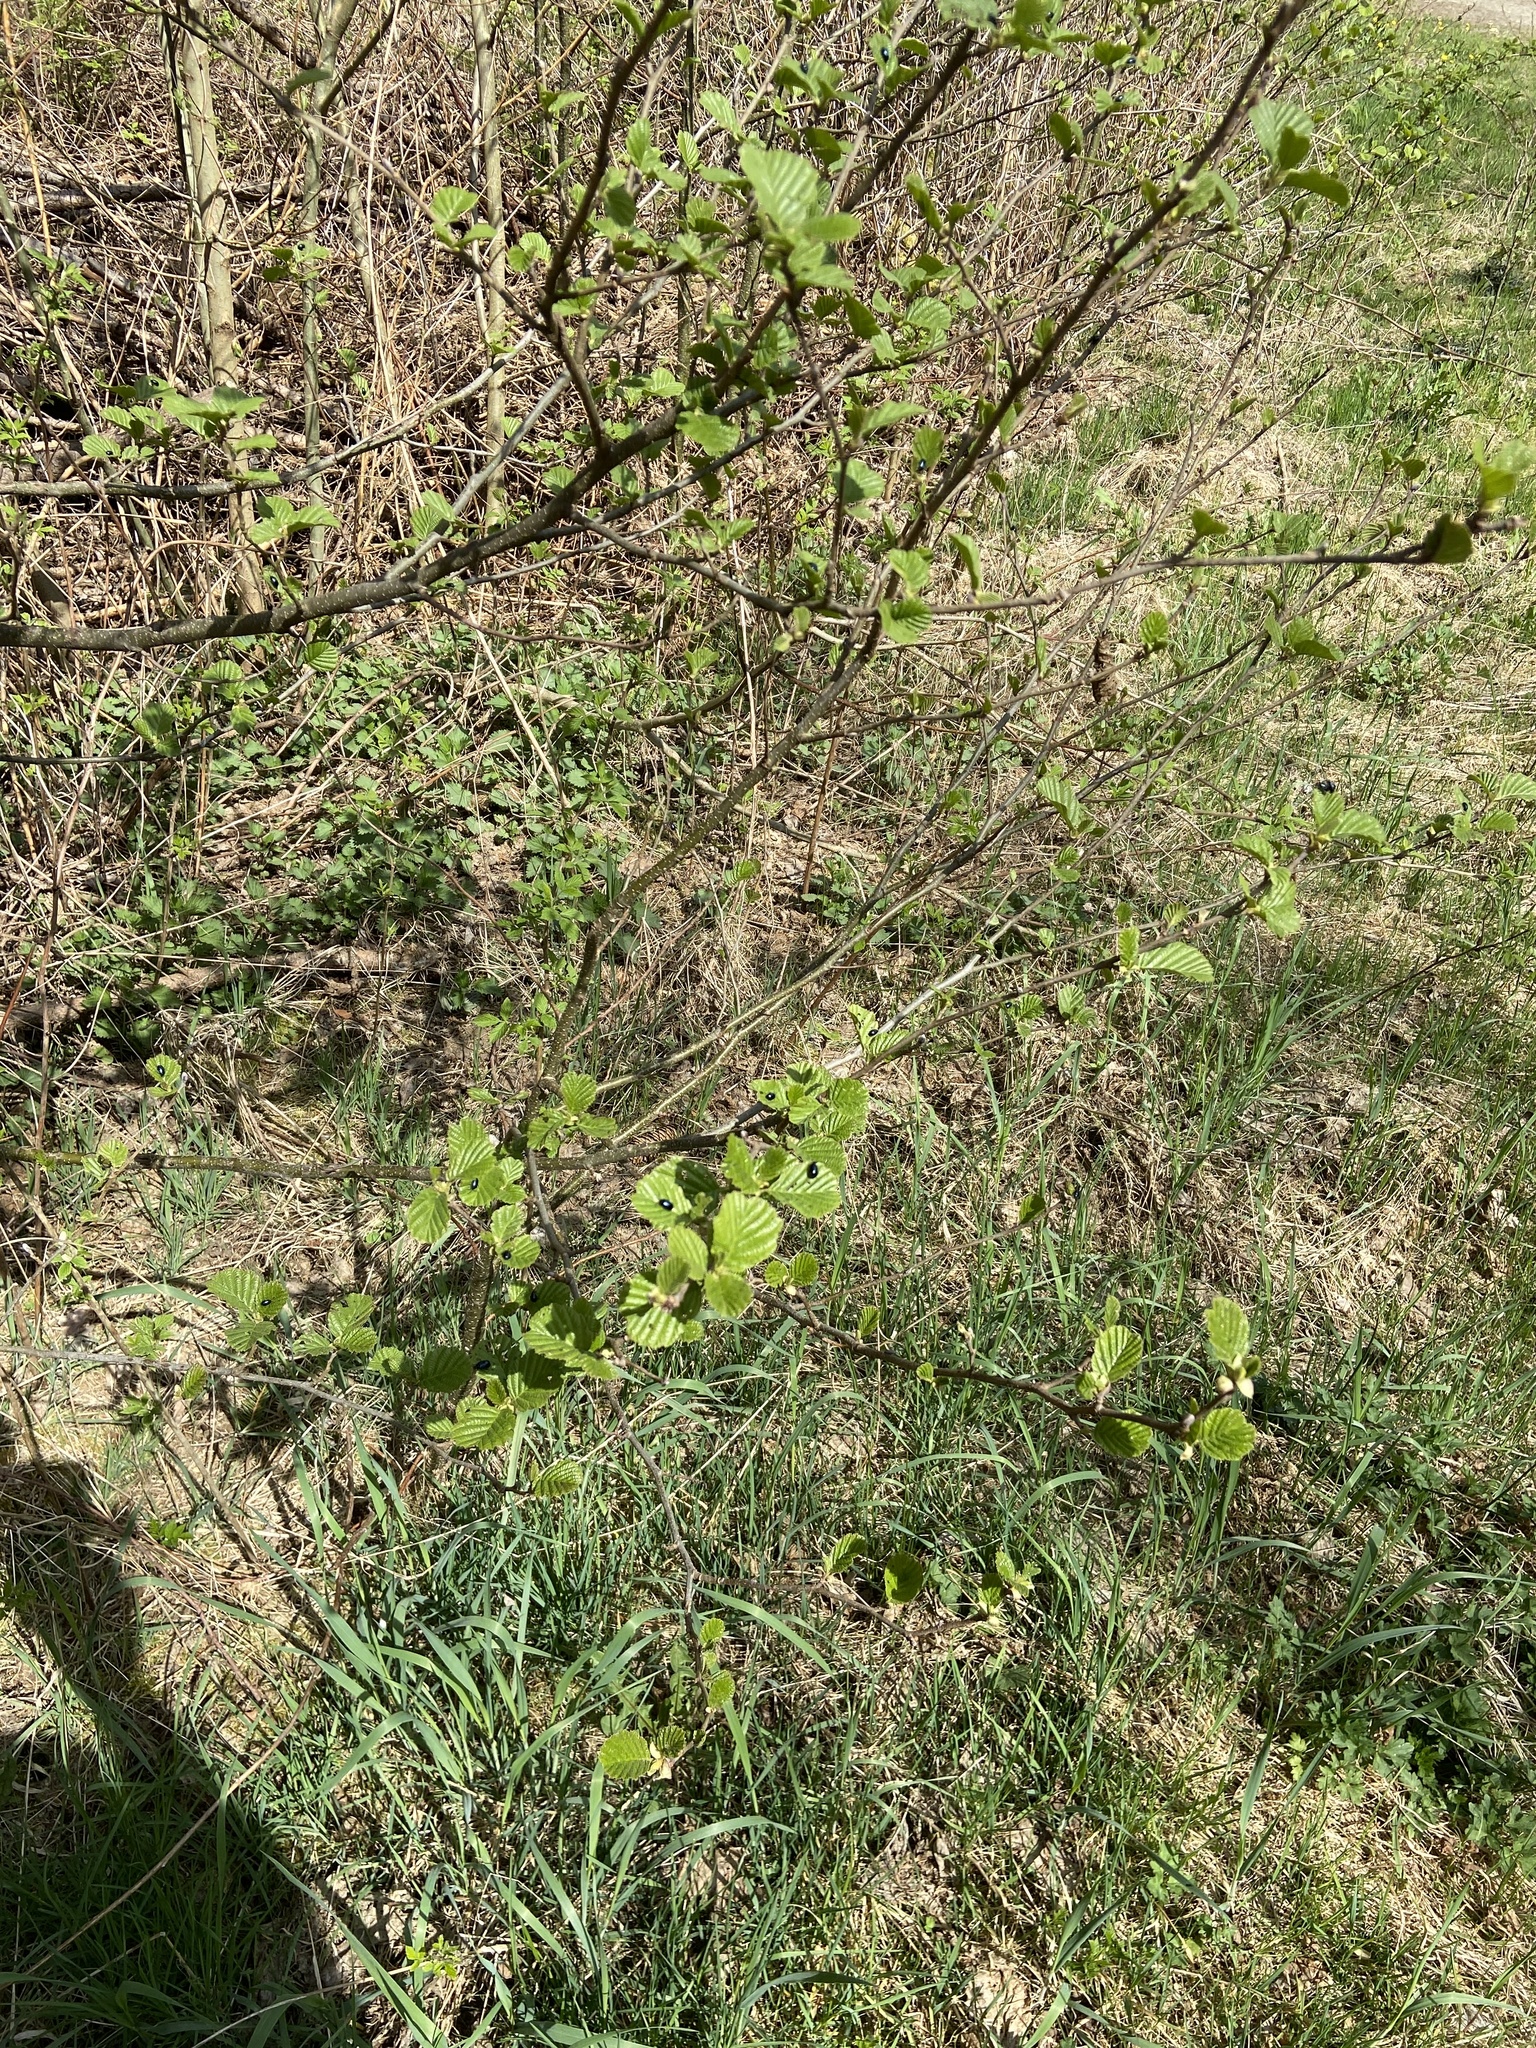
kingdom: Animalia
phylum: Arthropoda
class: Insecta
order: Coleoptera
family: Chrysomelidae
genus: Agelastica
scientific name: Agelastica alni
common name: Alder leaf beetle
